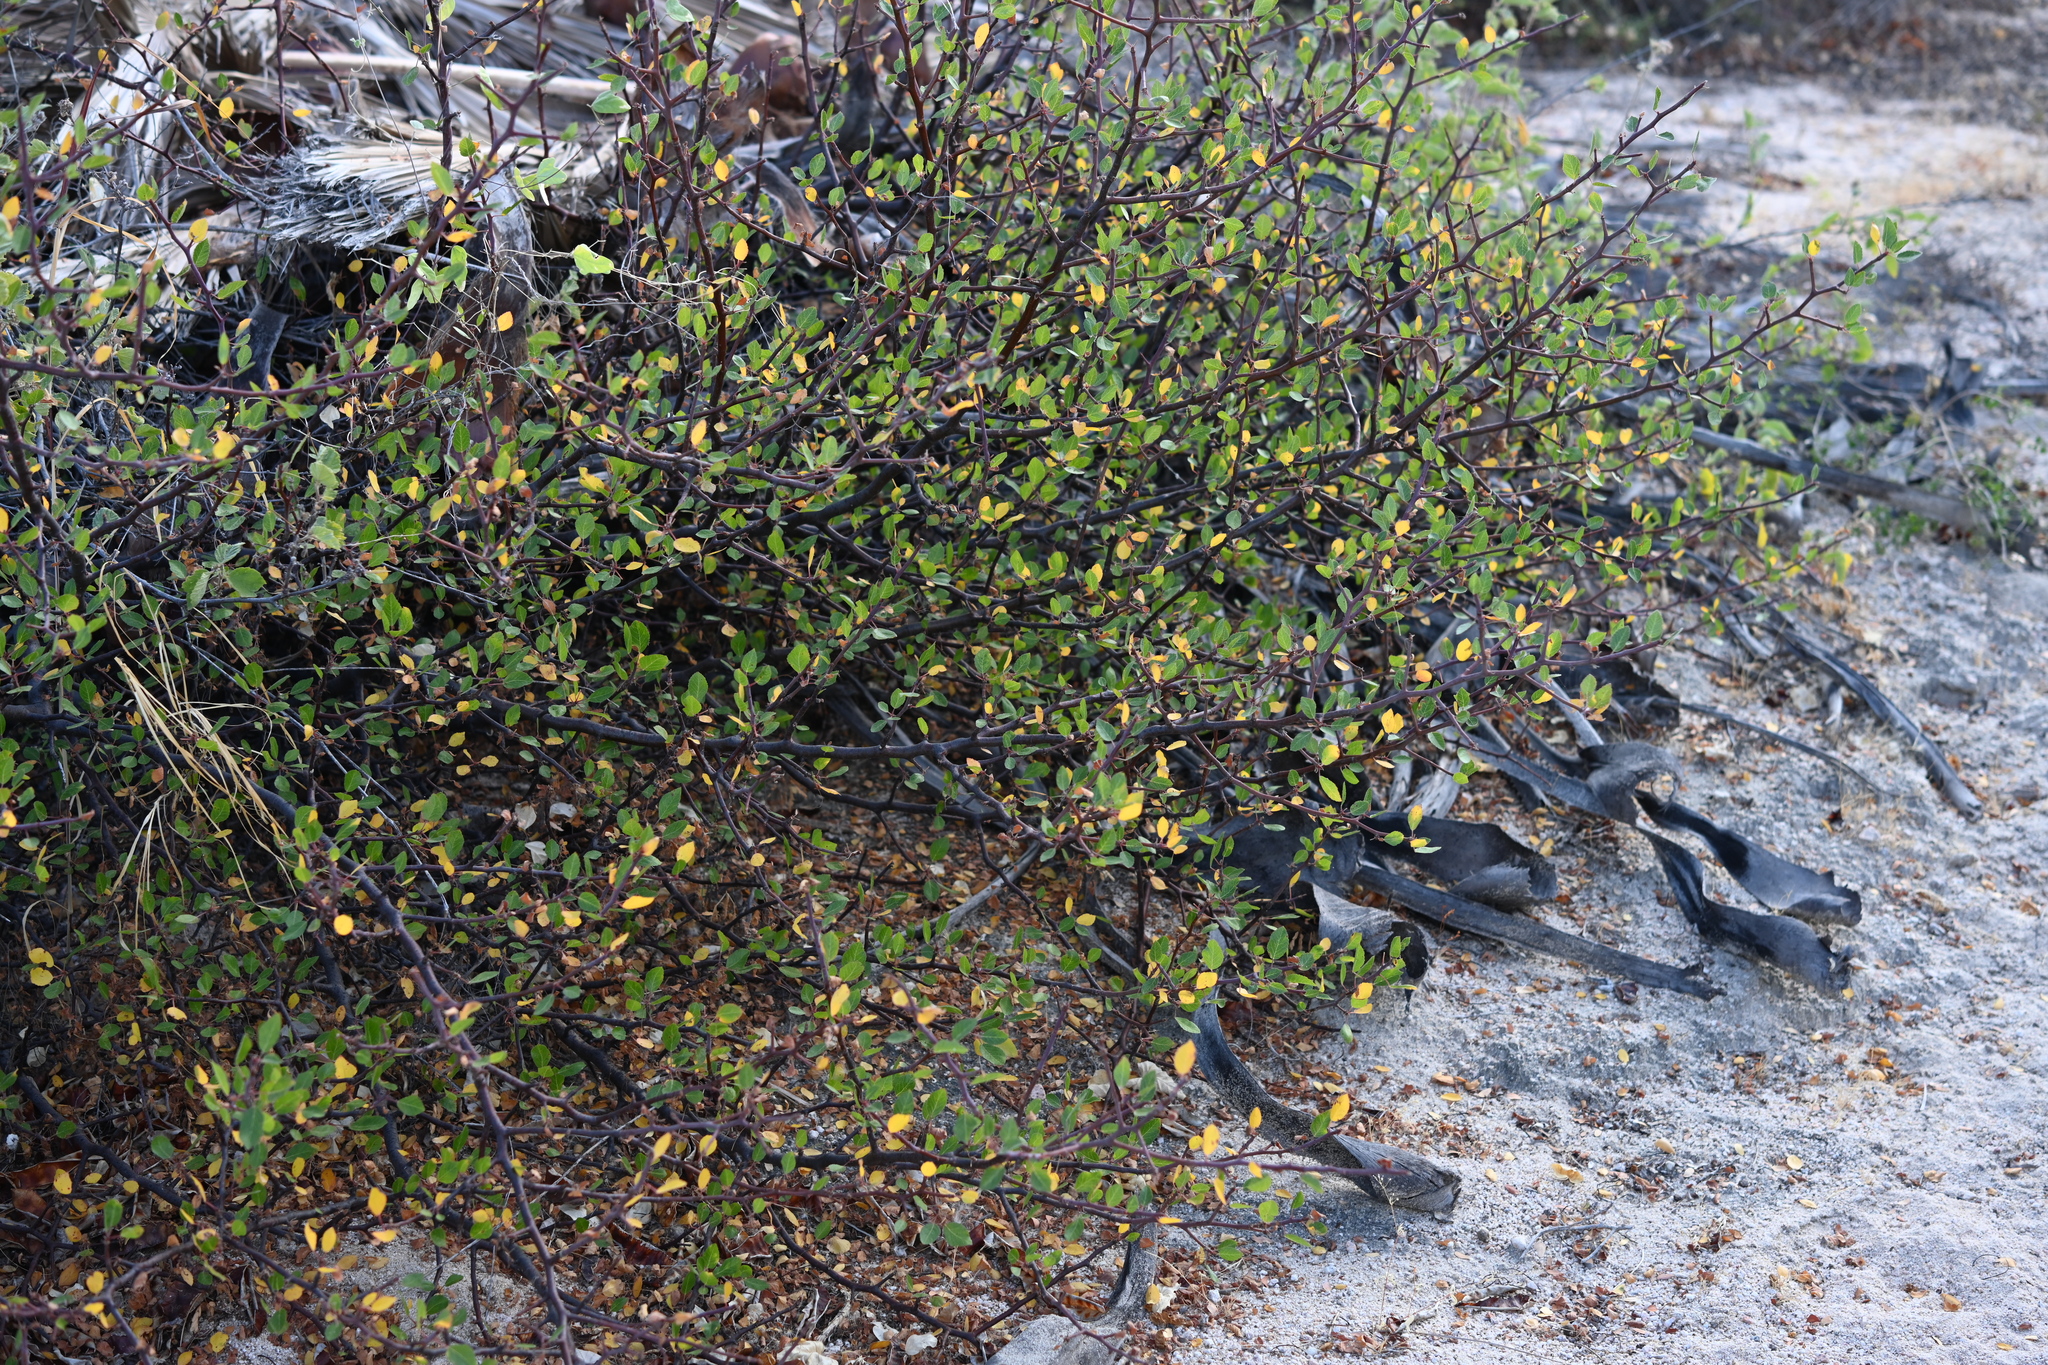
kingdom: Plantae
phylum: Tracheophyta
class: Magnoliopsida
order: Sapindales
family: Burseraceae
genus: Bursera
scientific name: Bursera epinnata
